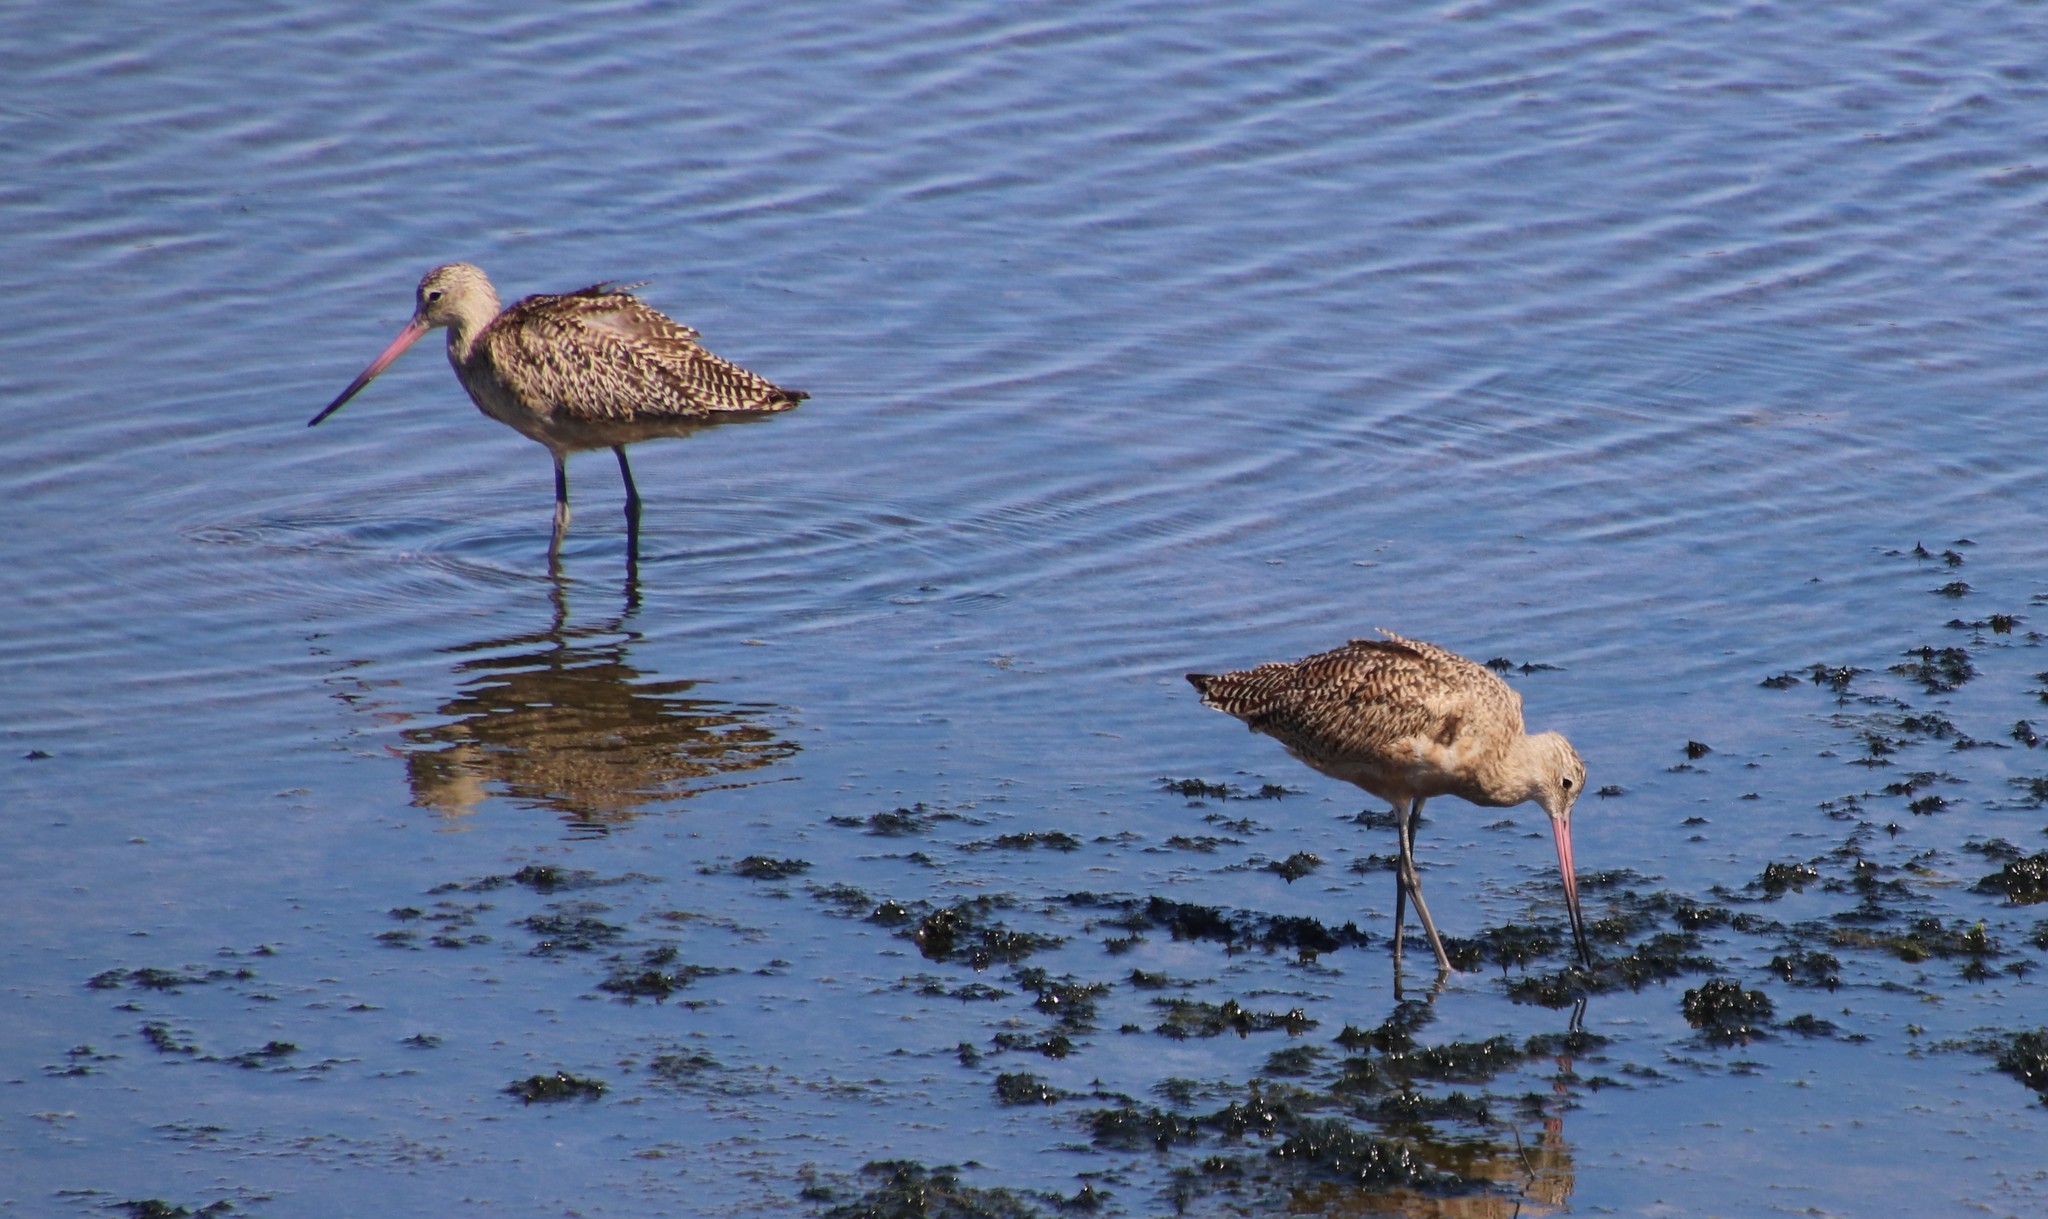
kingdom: Animalia
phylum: Chordata
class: Aves
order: Charadriiformes
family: Scolopacidae
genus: Limosa
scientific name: Limosa fedoa
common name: Marbled godwit
